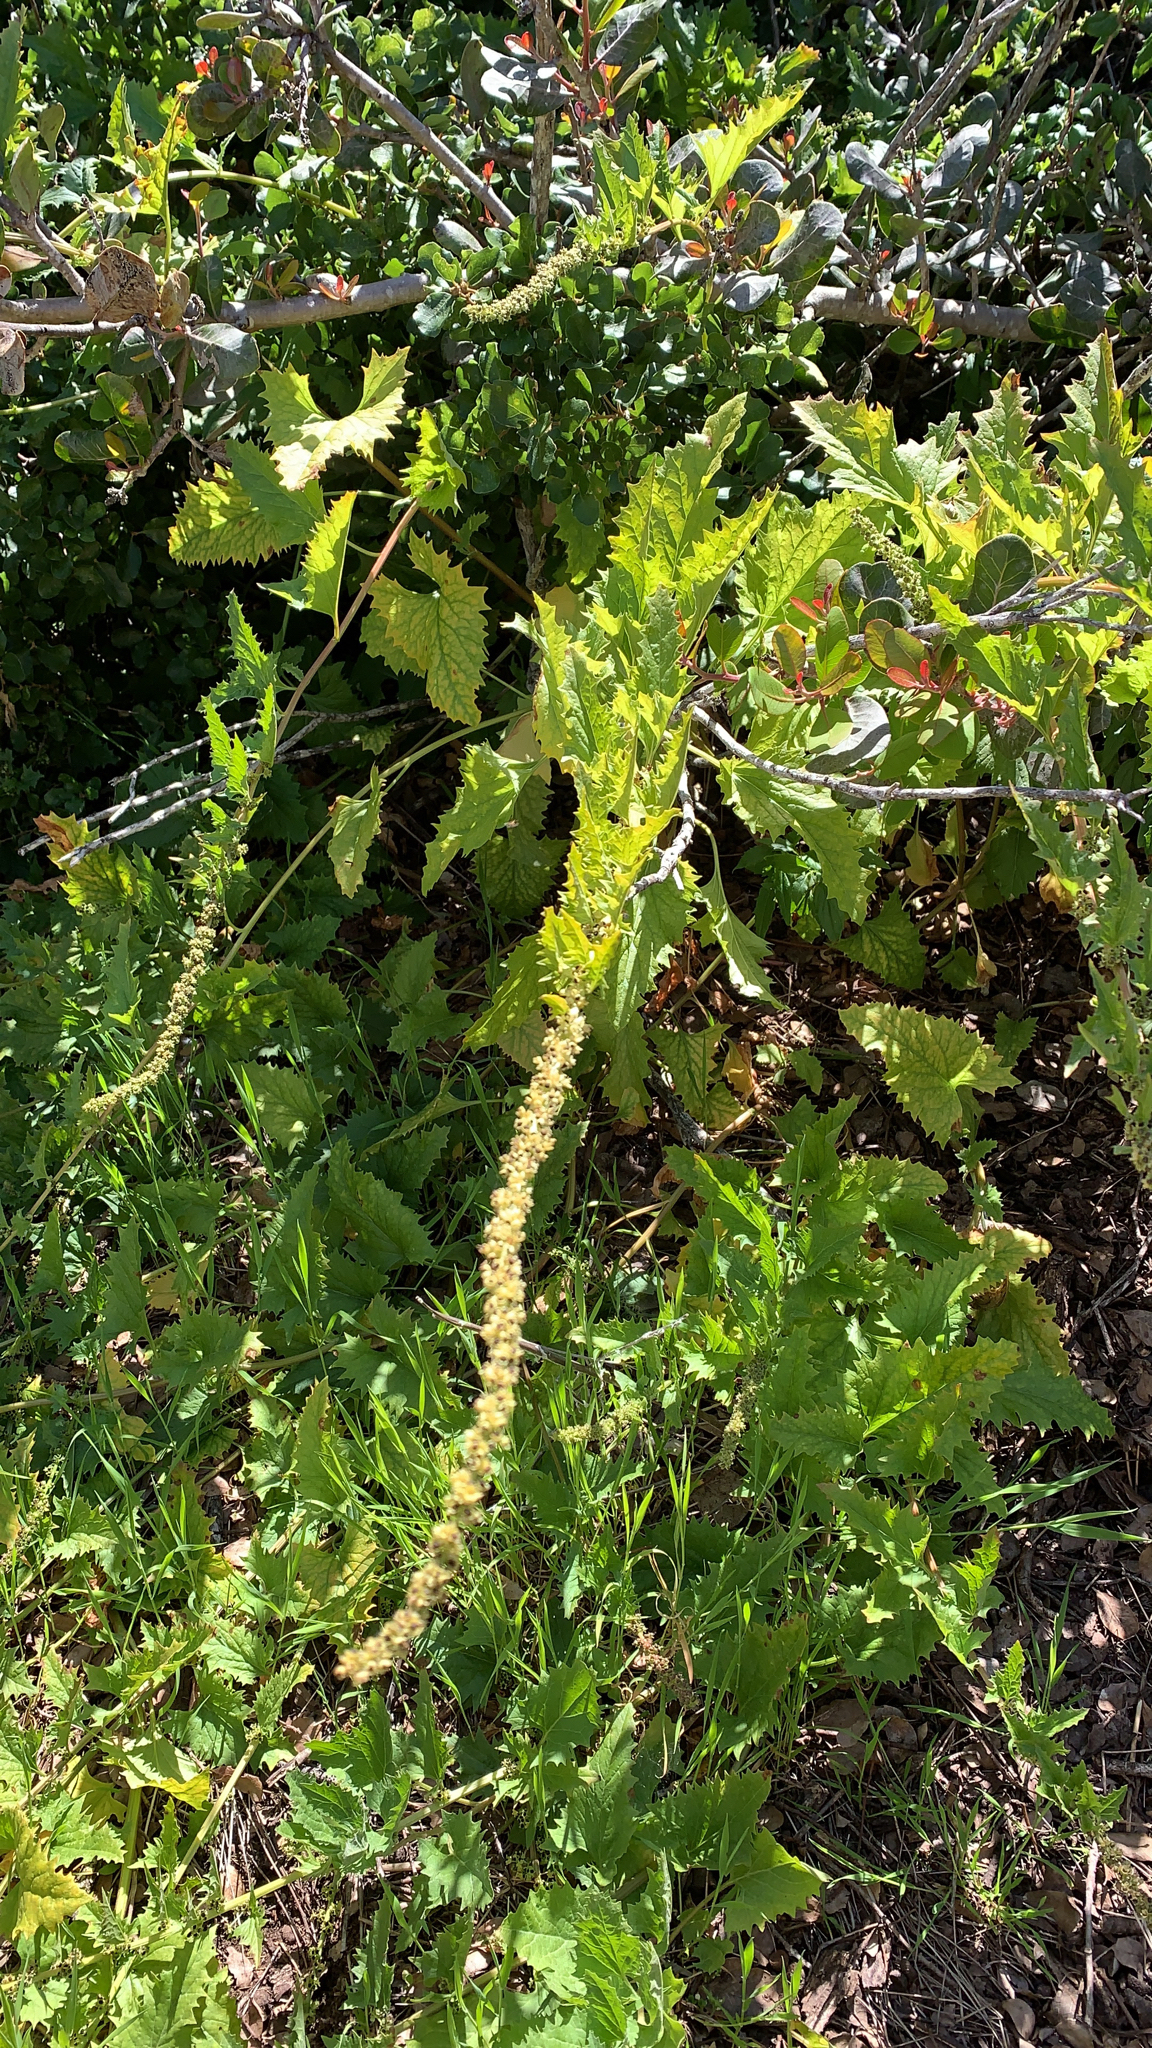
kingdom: Plantae
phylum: Tracheophyta
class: Magnoliopsida
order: Caryophyllales
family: Amaranthaceae
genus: Blitum
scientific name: Blitum californicum
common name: California goosefoot
